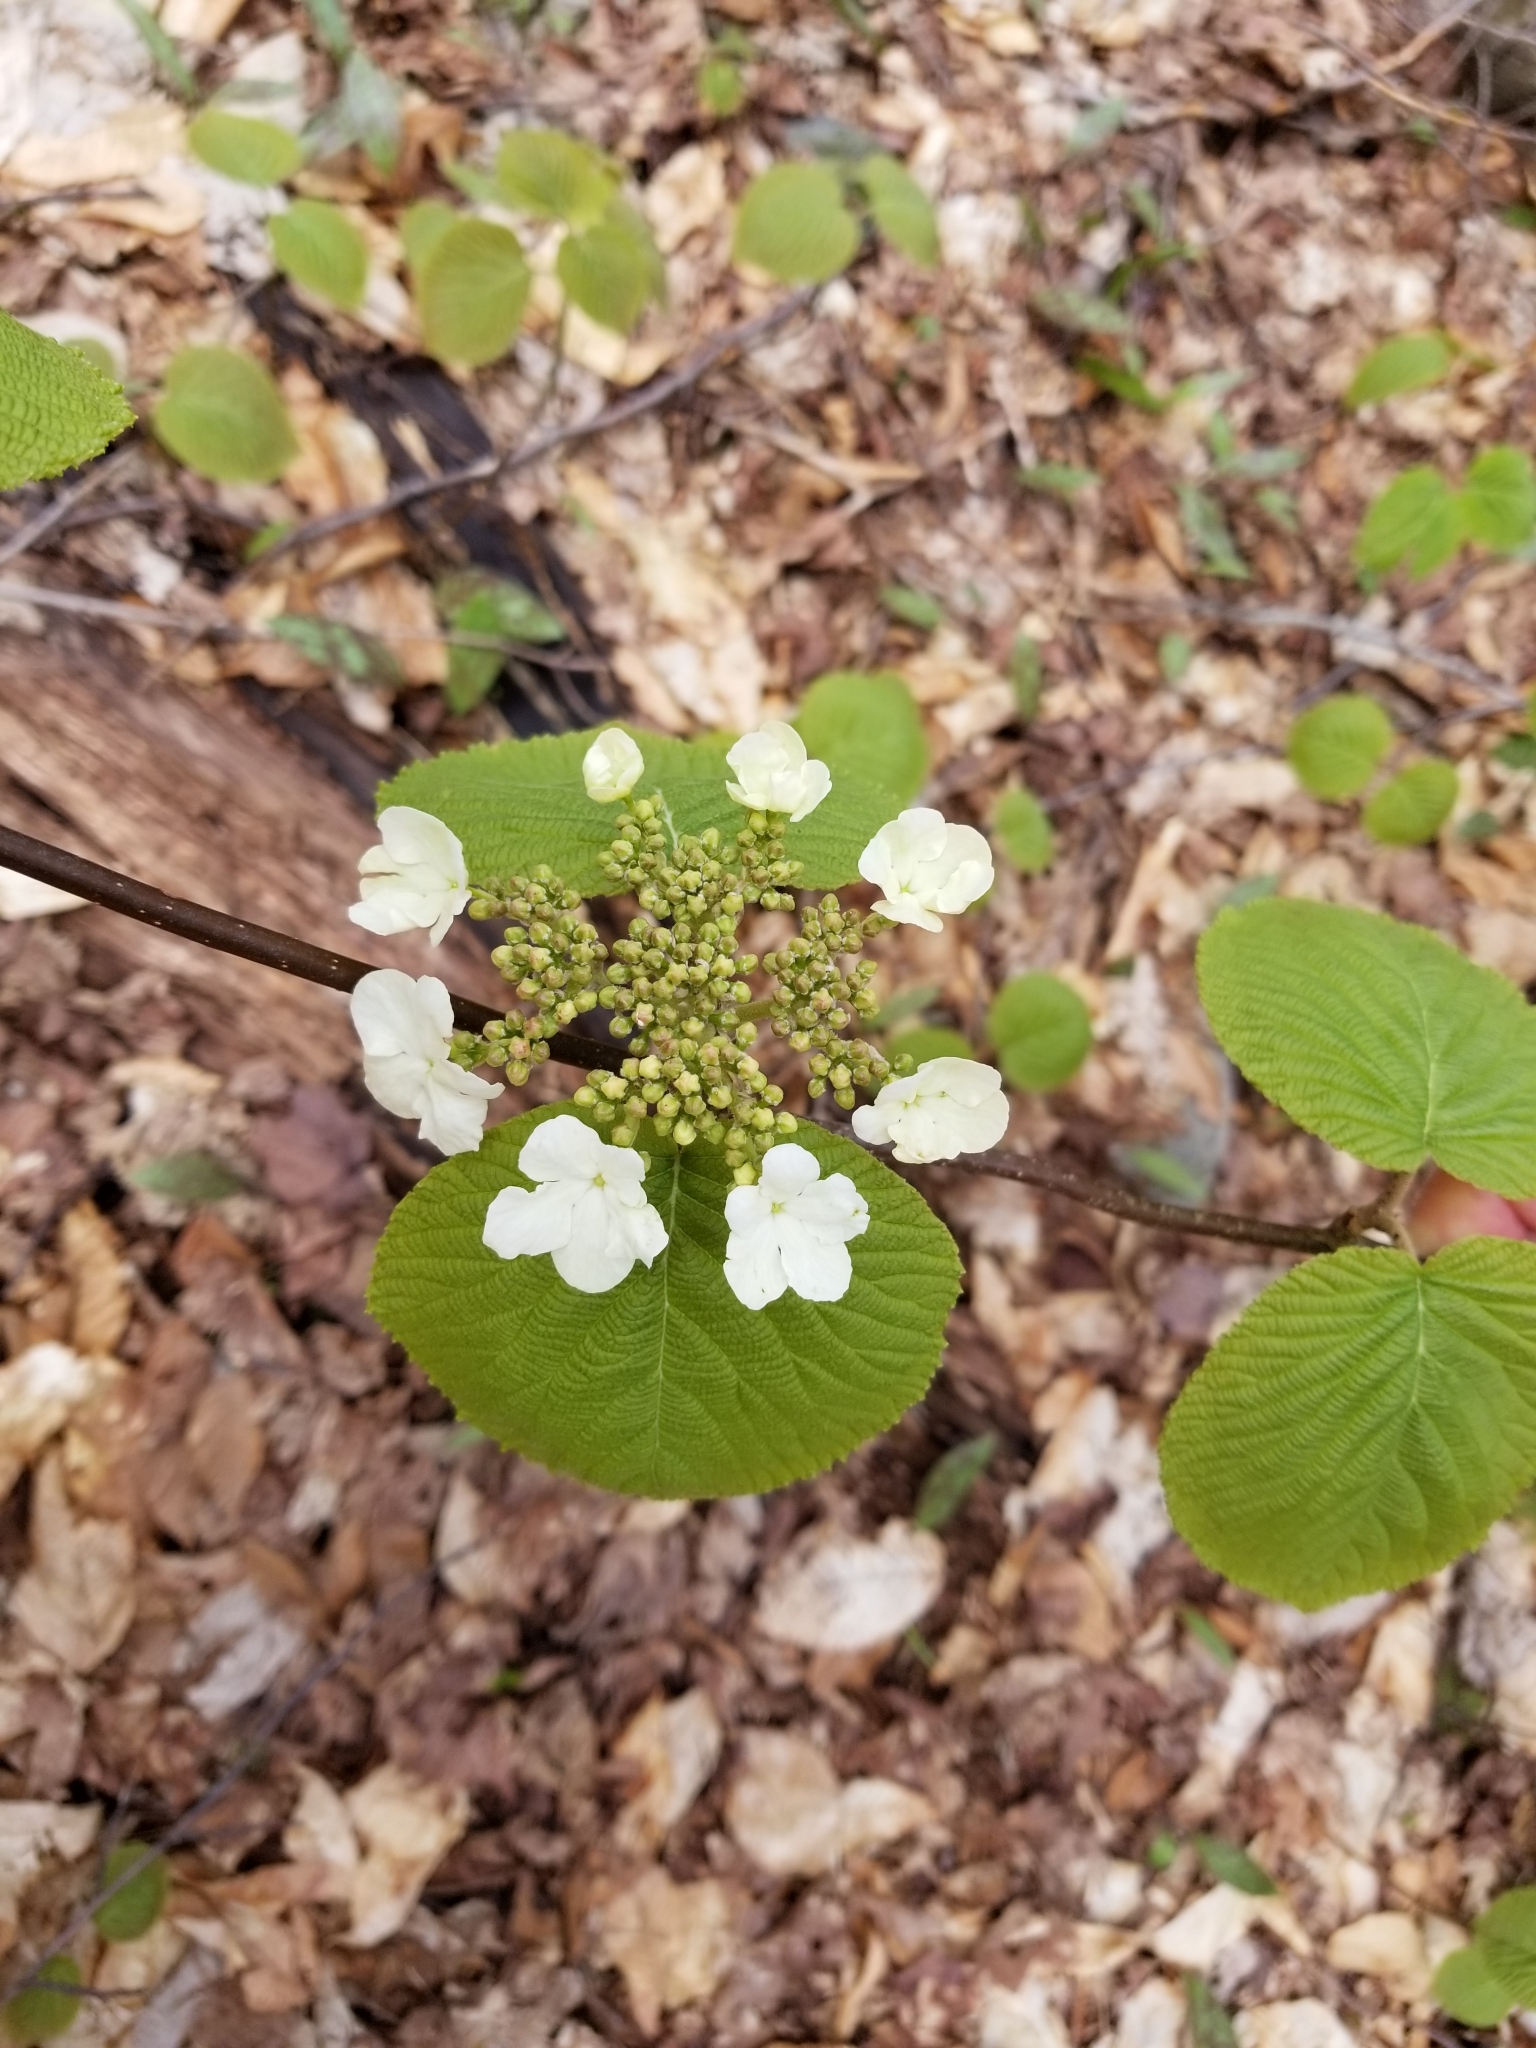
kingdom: Plantae
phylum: Tracheophyta
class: Magnoliopsida
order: Dipsacales
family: Viburnaceae
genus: Viburnum
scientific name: Viburnum lantanoides
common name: Hobblebush
